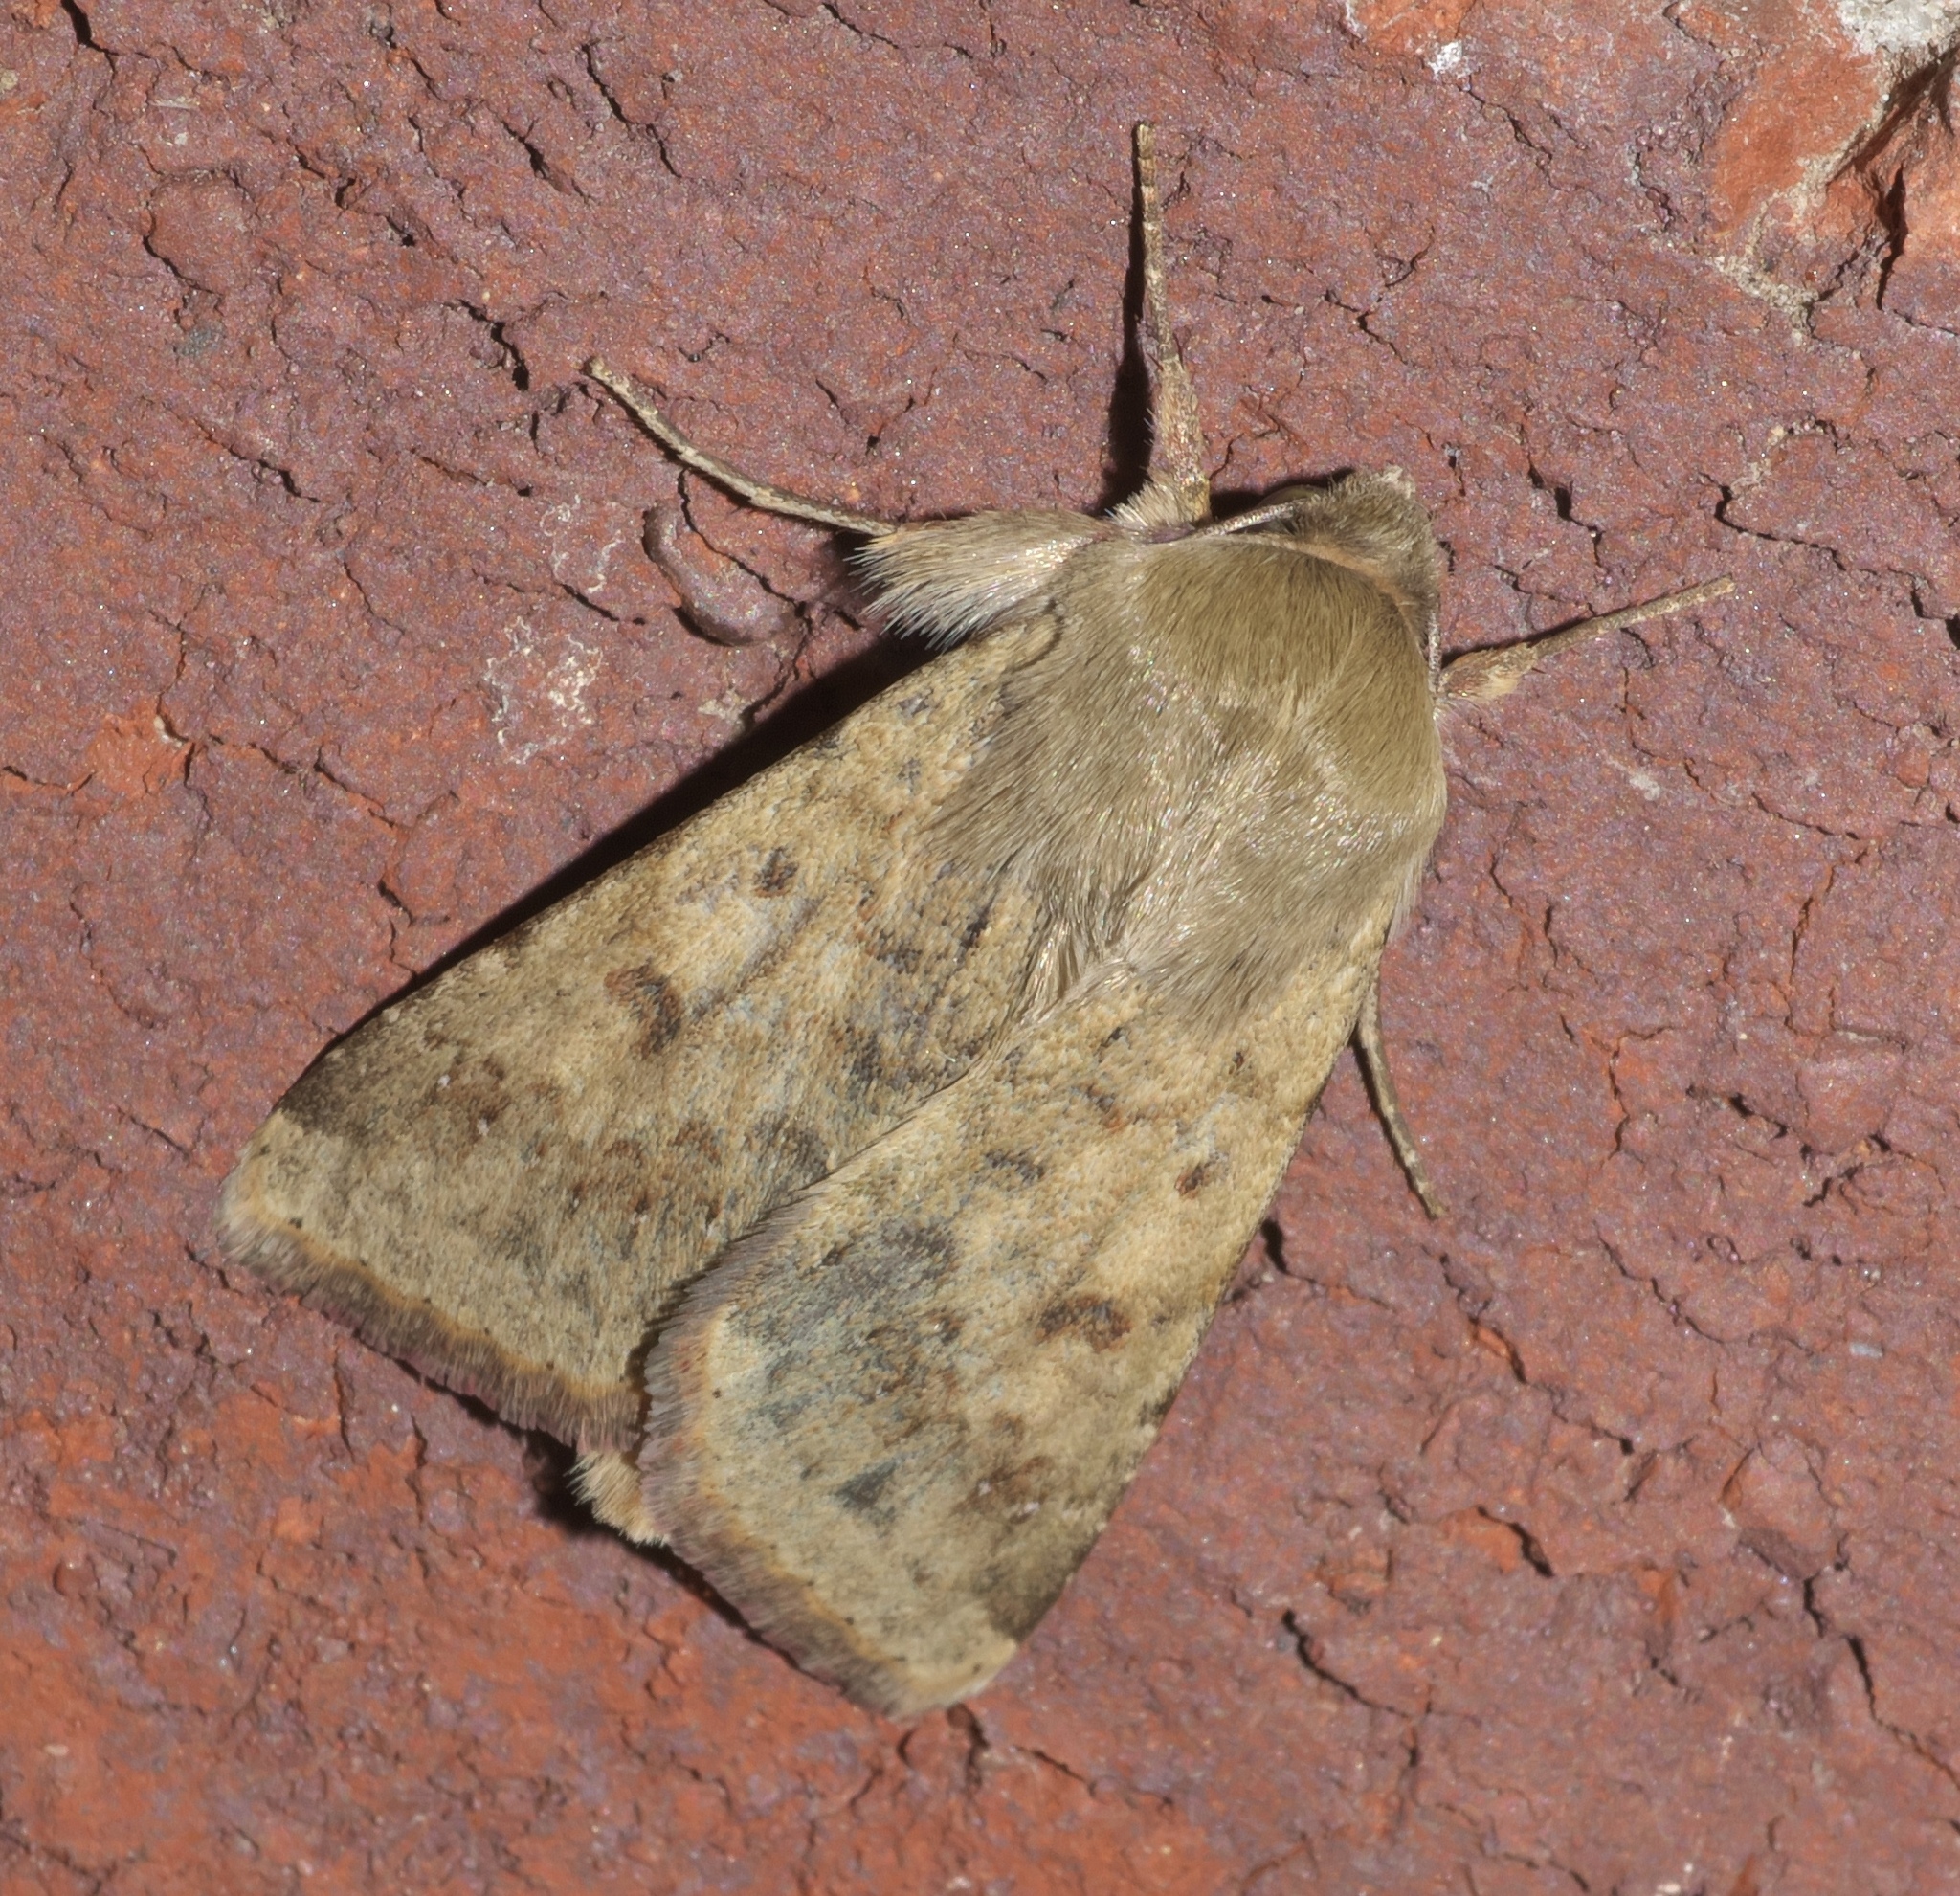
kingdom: Animalia
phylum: Arthropoda
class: Insecta
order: Lepidoptera
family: Noctuidae
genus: Helicoverpa
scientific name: Helicoverpa zea
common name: Bollworm
